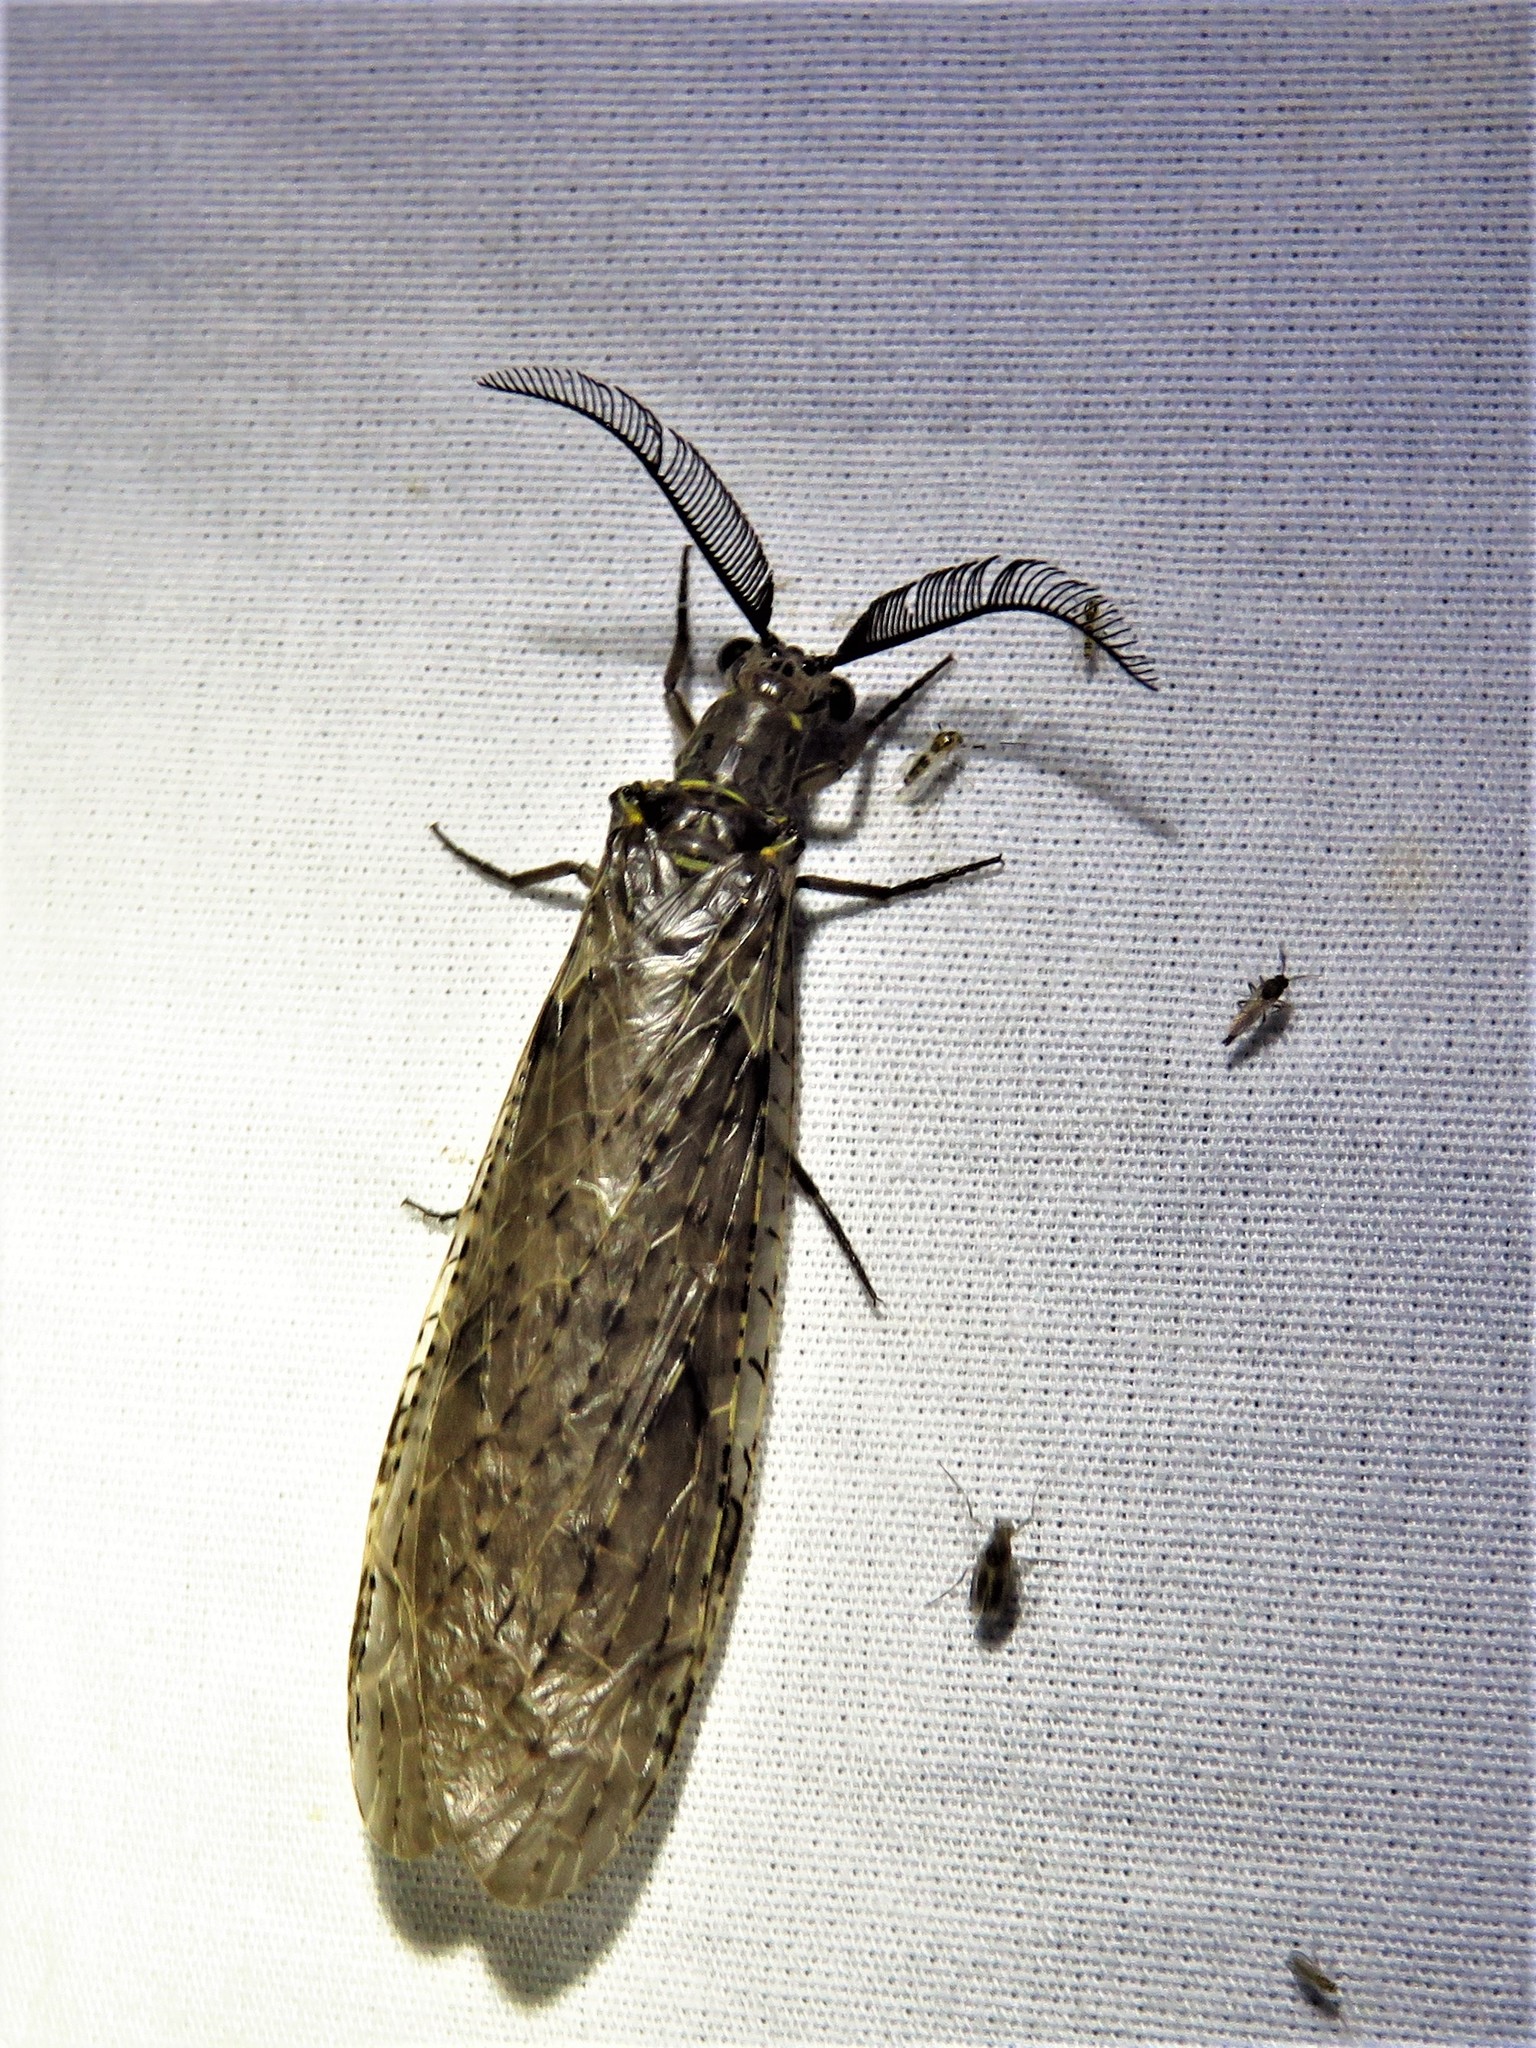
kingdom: Animalia
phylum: Arthropoda
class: Insecta
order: Megaloptera
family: Corydalidae
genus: Chauliodes
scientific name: Chauliodes rastricornis
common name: Spring fishfly
